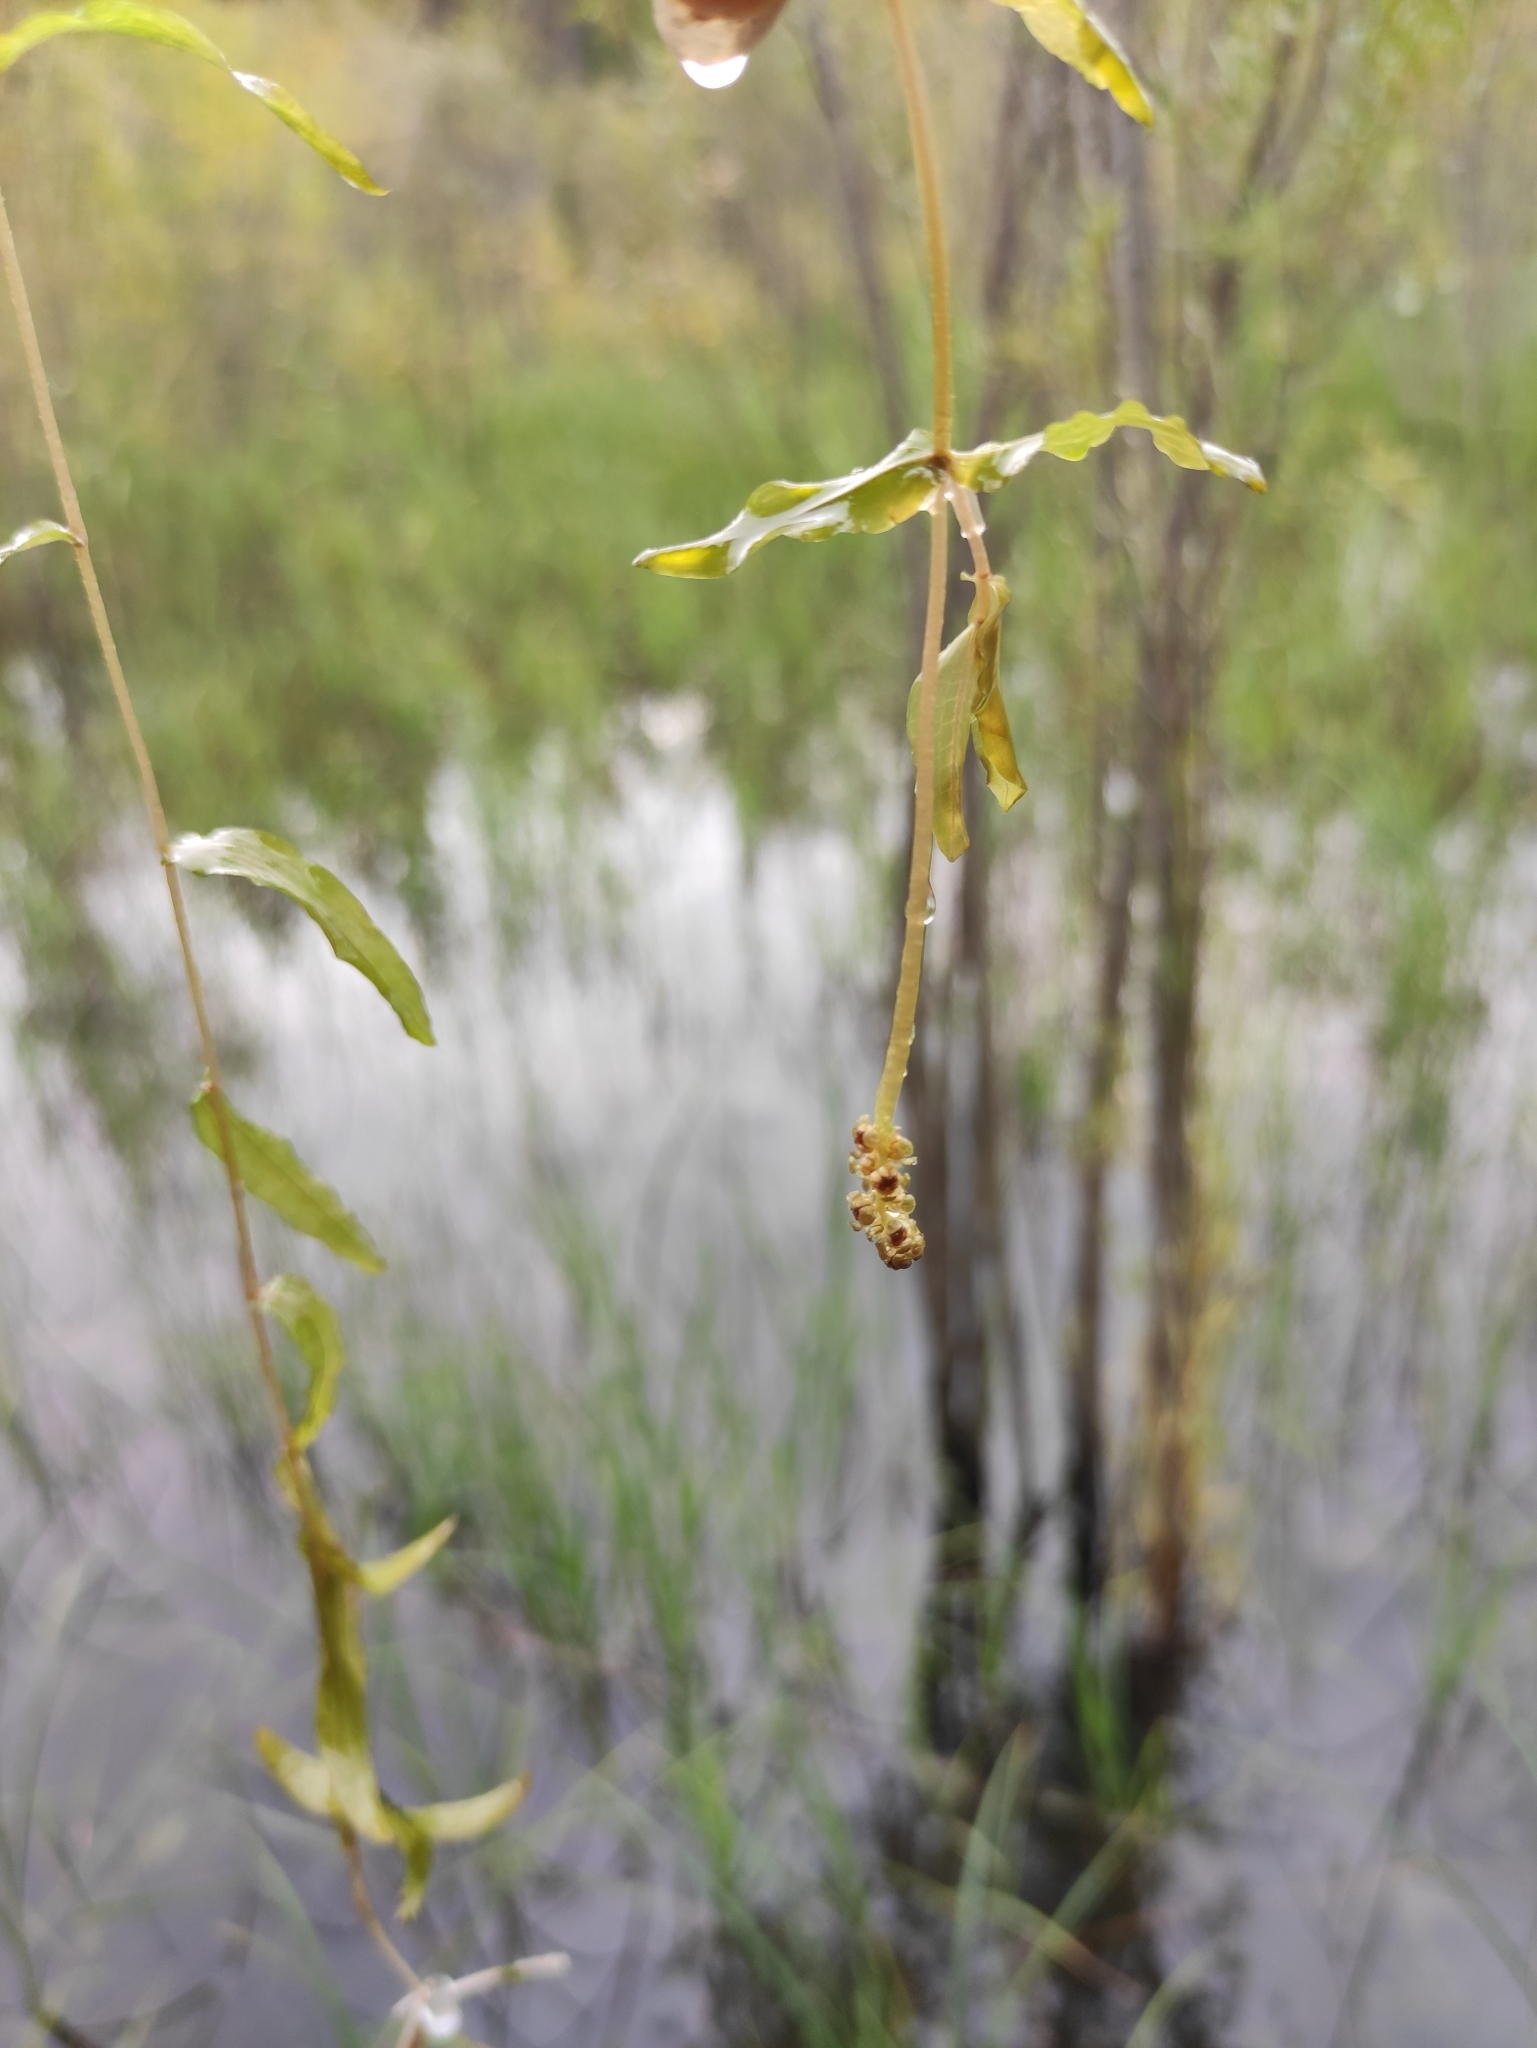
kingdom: Plantae
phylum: Tracheophyta
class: Liliopsida
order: Alismatales
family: Potamogetonaceae
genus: Potamogeton
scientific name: Potamogeton perfoliatus
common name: Perfoliate pondweed
